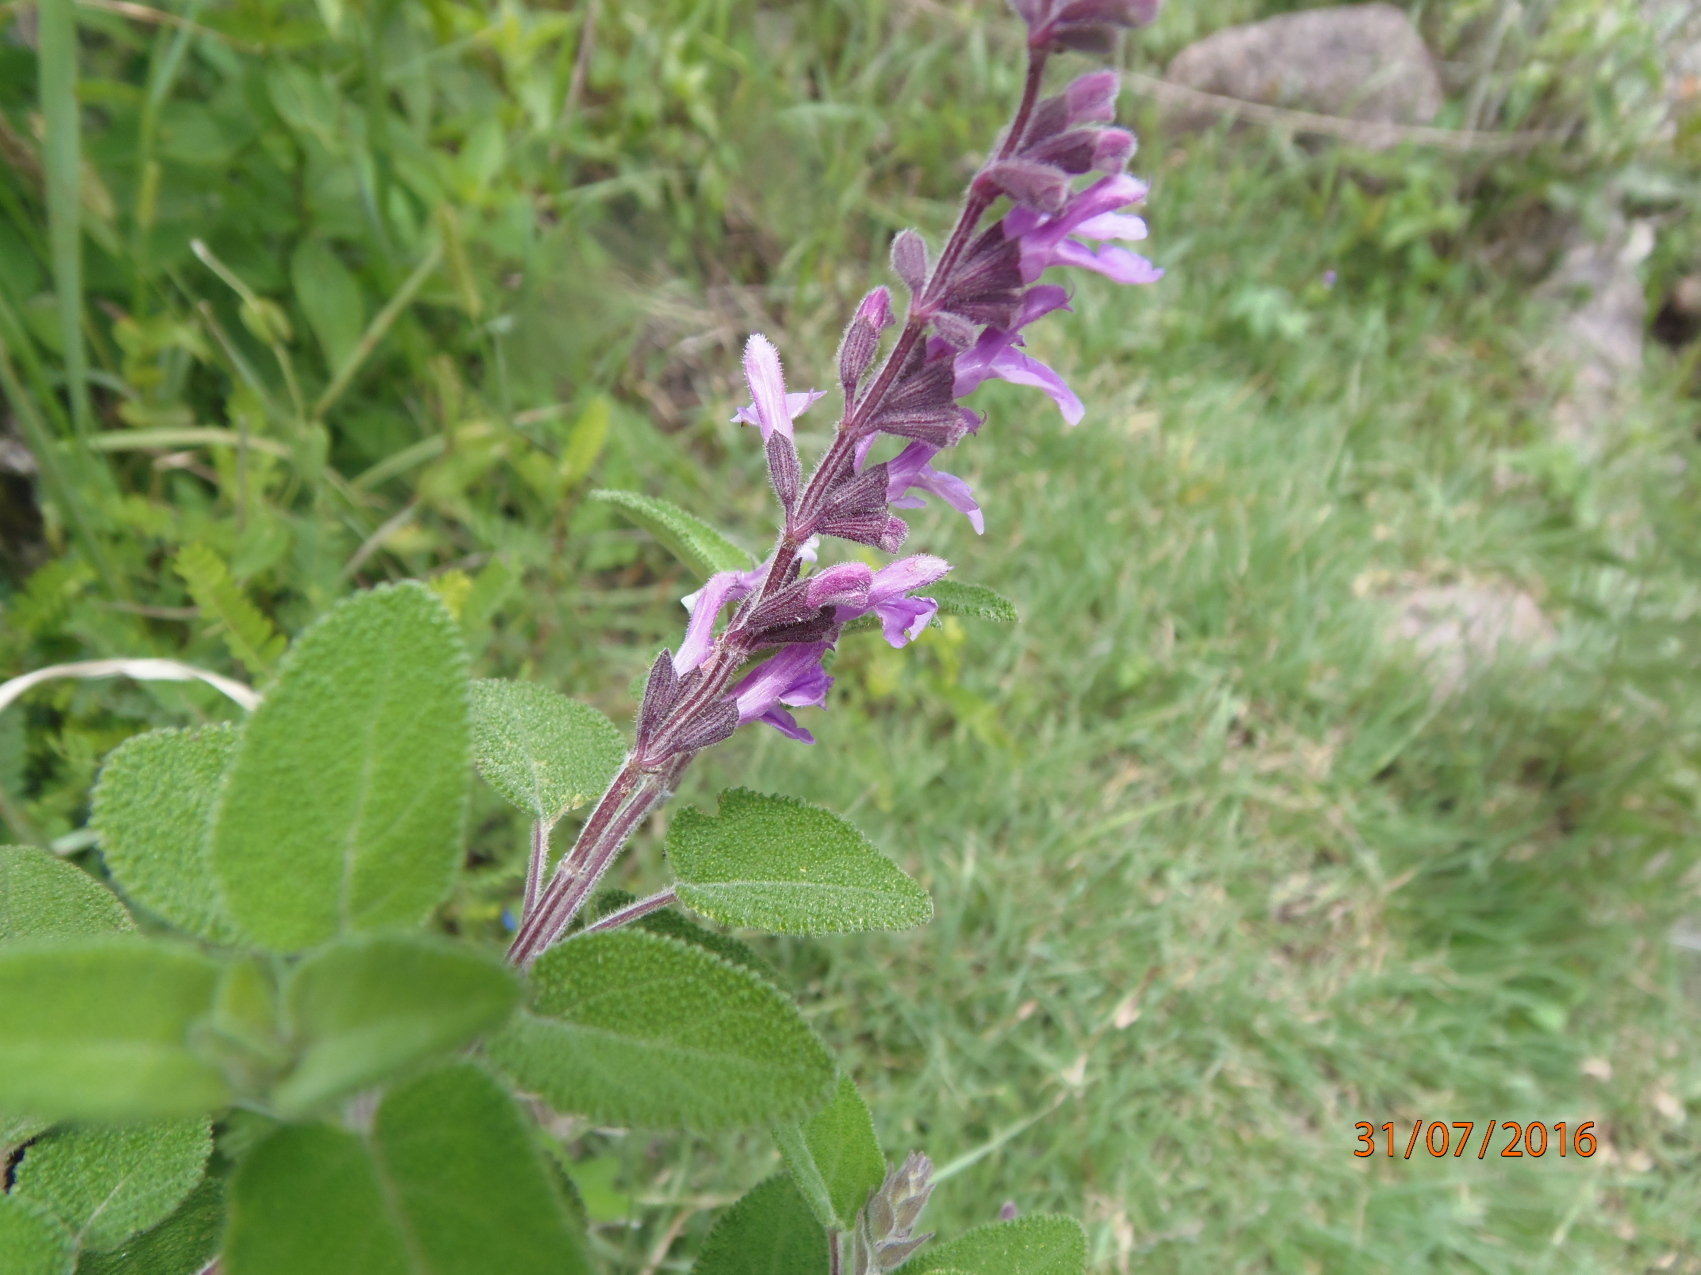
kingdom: Plantae
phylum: Tracheophyta
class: Magnoliopsida
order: Lamiales
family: Lamiaceae
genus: Salvia
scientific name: Salvia melissodora
